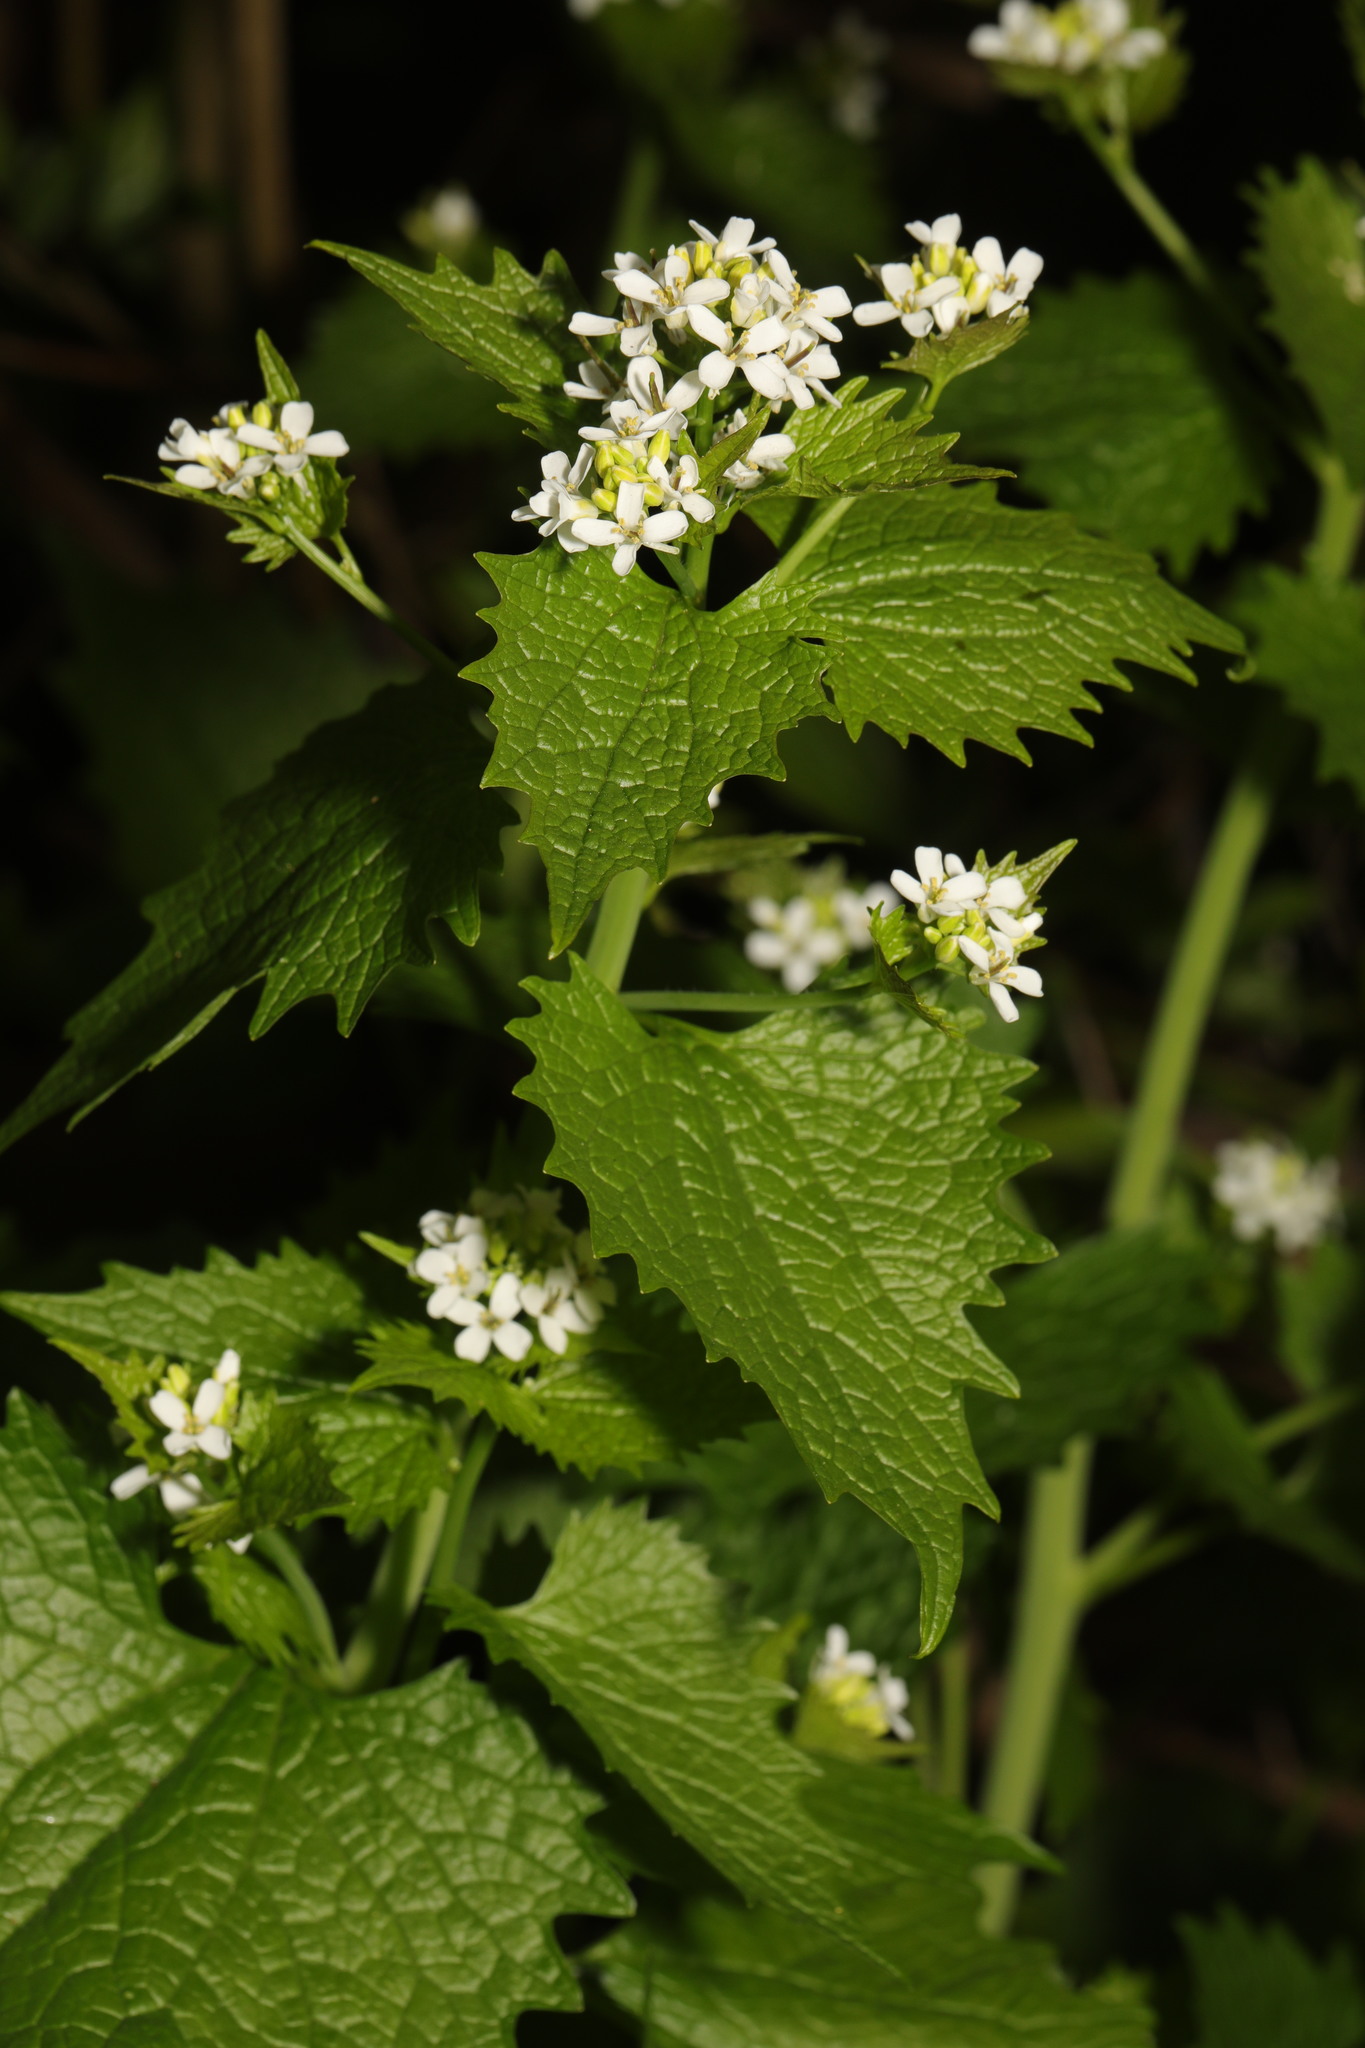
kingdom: Plantae
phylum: Tracheophyta
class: Magnoliopsida
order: Brassicales
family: Brassicaceae
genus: Alliaria
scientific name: Alliaria petiolata
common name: Garlic mustard
